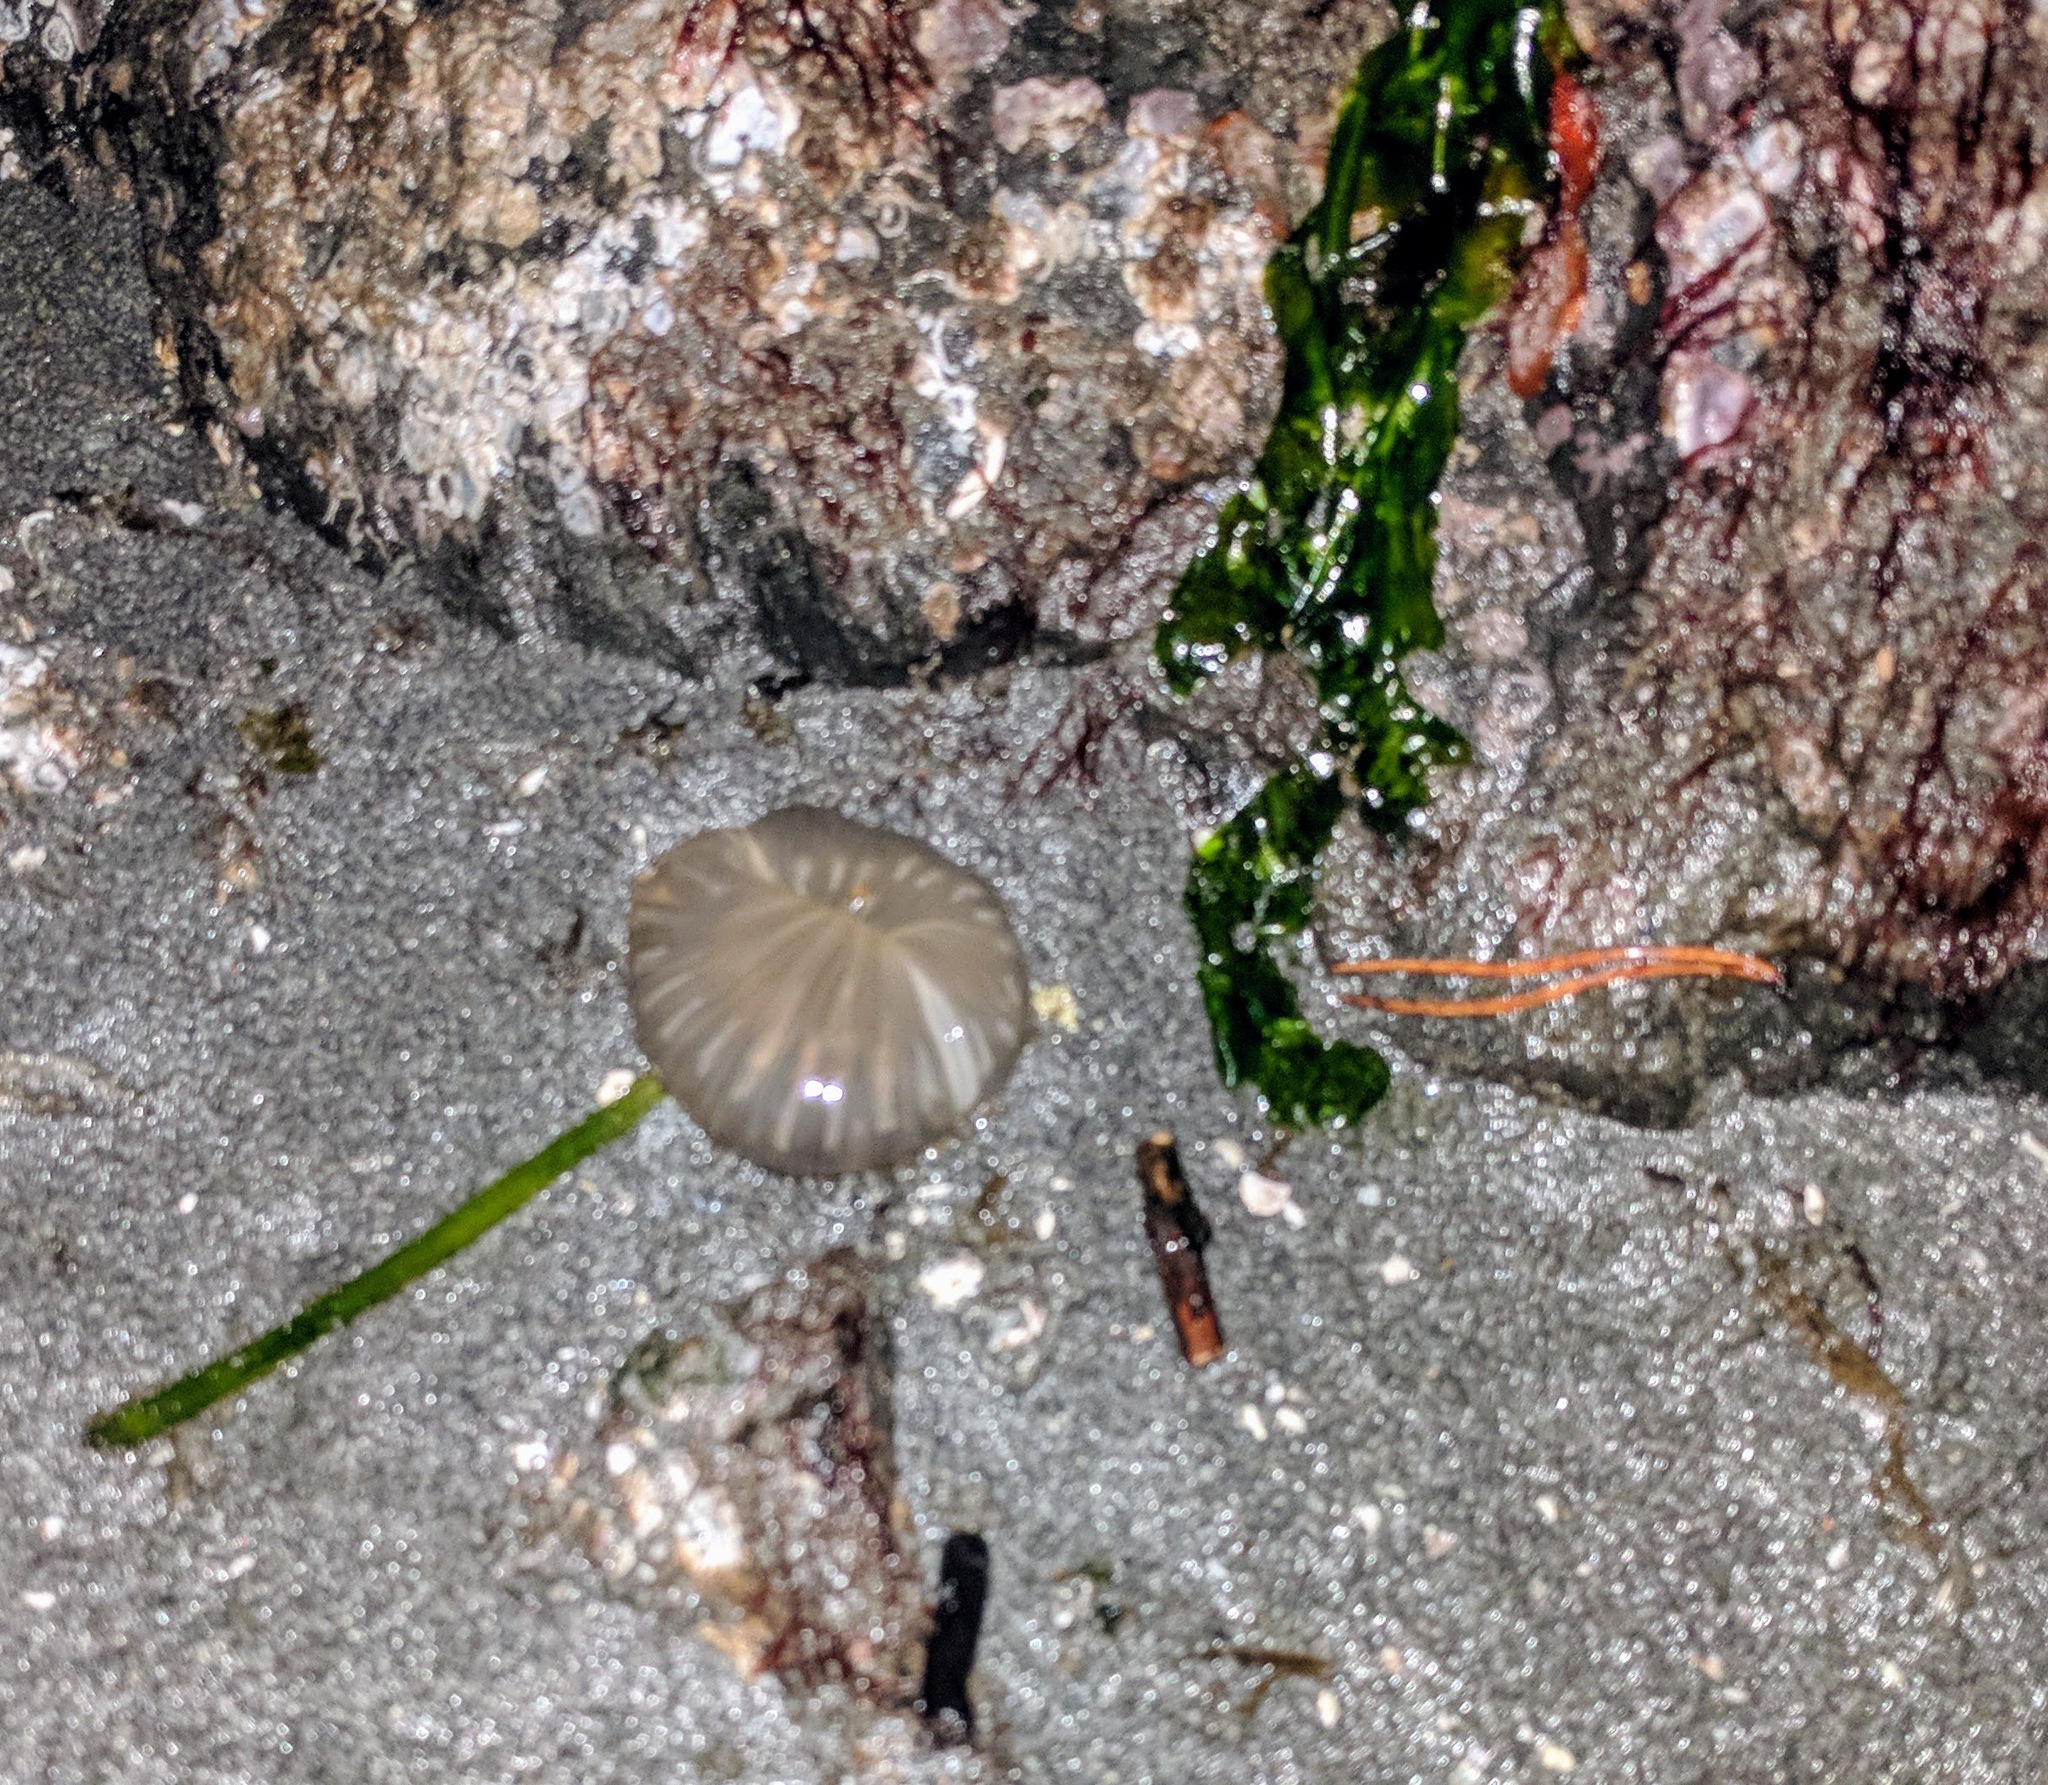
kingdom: Animalia
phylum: Cnidaria
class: Anthozoa
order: Actiniaria
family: Diadumenidae
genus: Diadumene
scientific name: Diadumene lineata
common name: Orange-striped anemone
